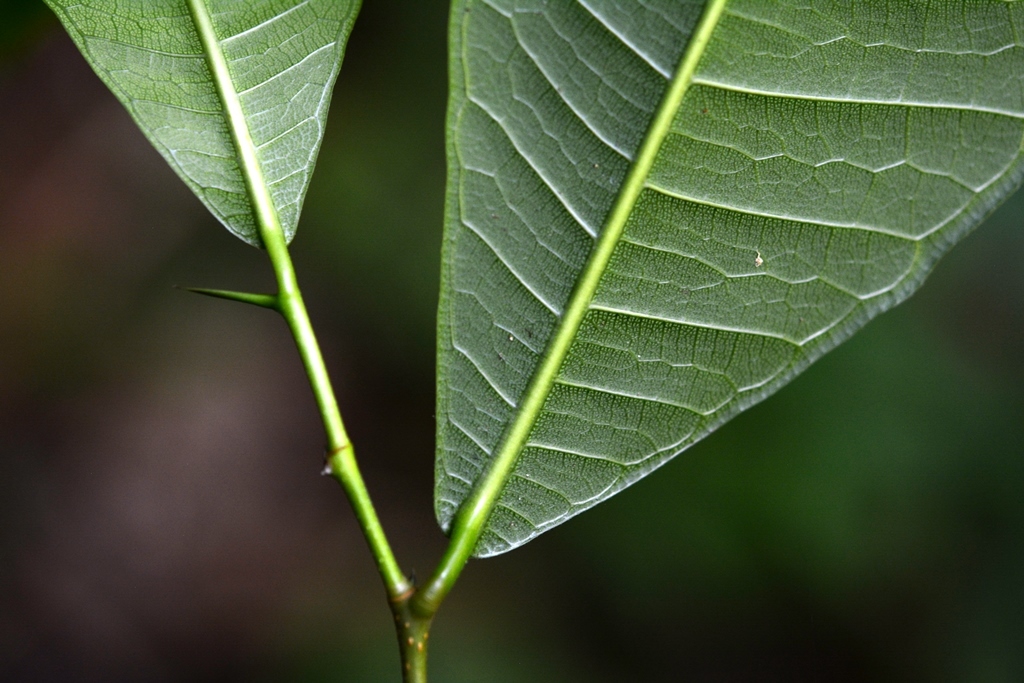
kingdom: Plantae
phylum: Tracheophyta
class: Magnoliopsida
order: Rosales
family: Moraceae
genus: Brosimum
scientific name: Brosimum alicastrum
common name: Breadnut
